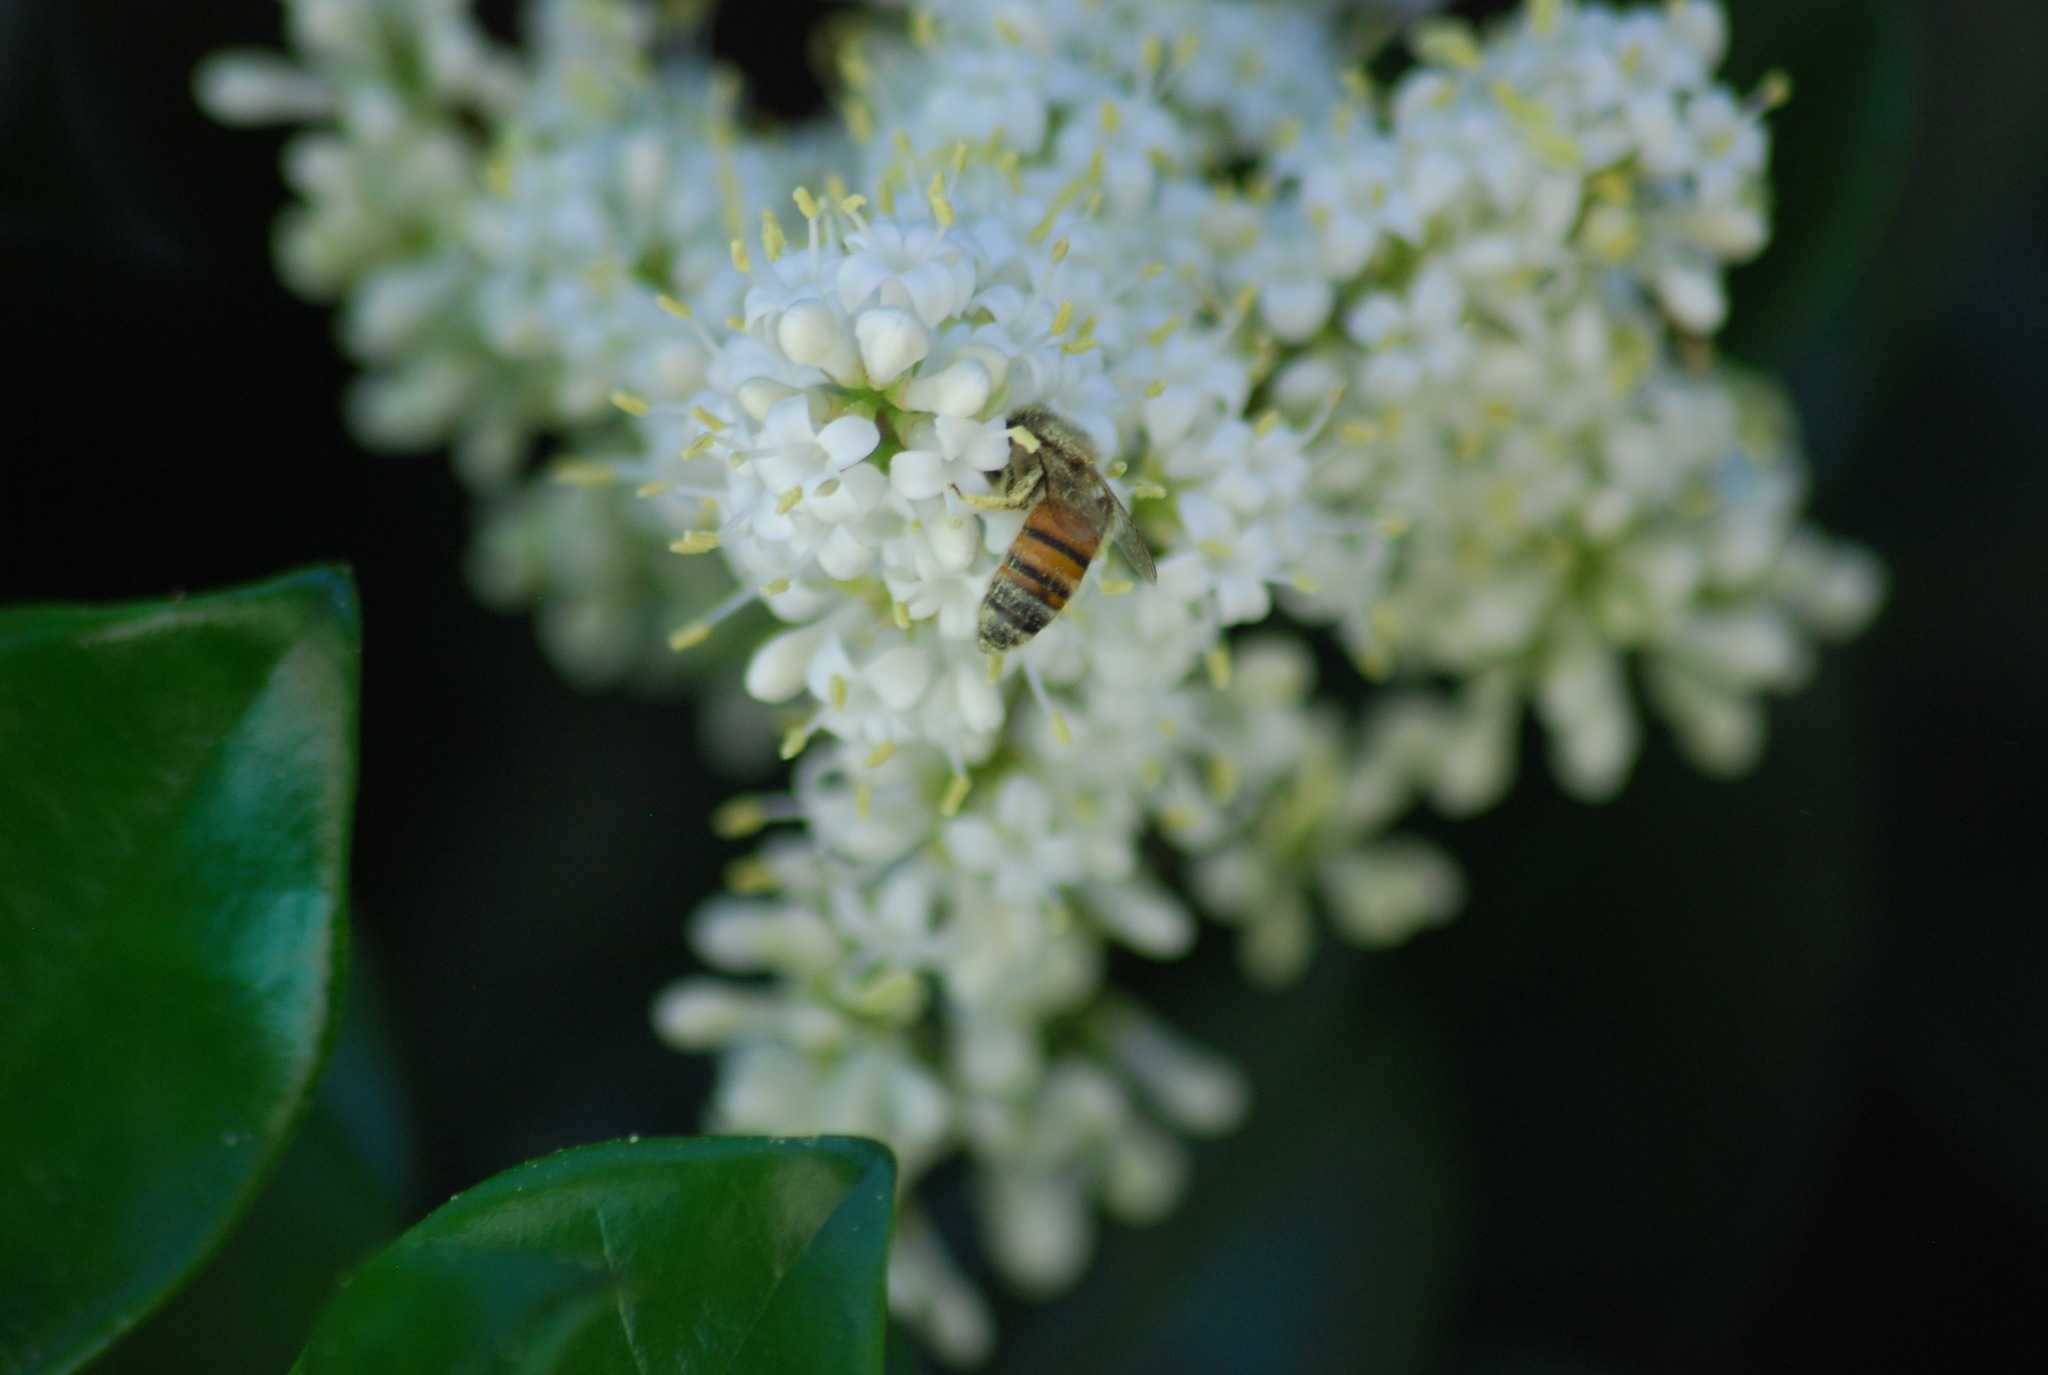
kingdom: Animalia
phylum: Arthropoda
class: Insecta
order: Hymenoptera
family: Apidae
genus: Apis
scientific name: Apis mellifera
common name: Honey bee
